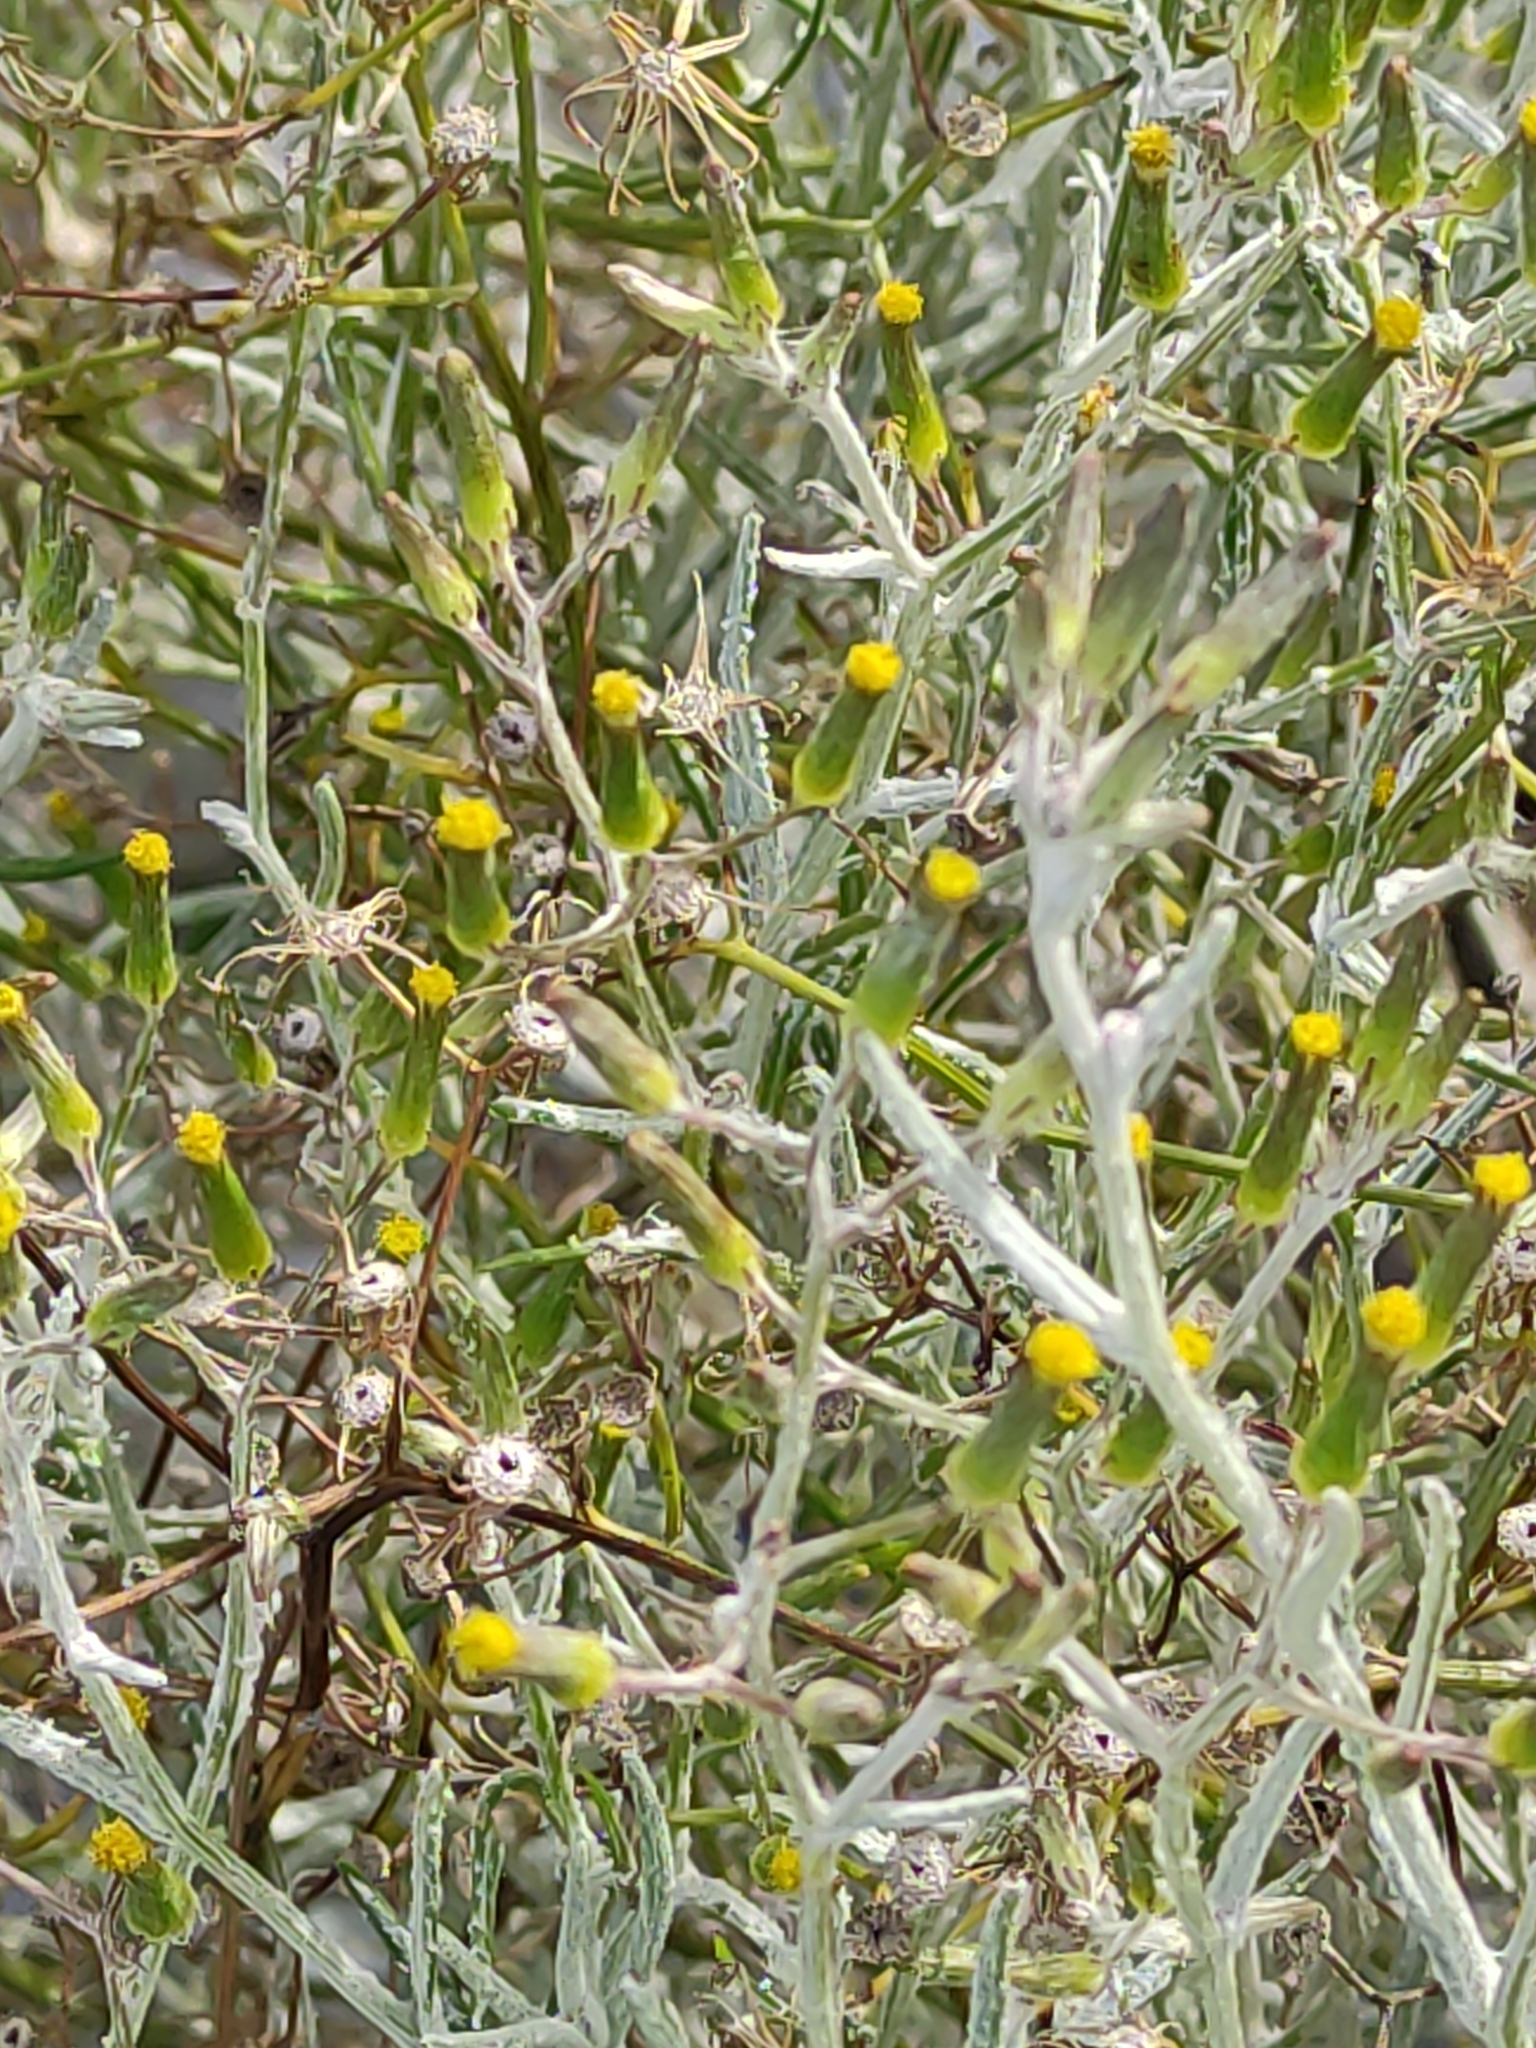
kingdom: Plantae
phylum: Tracheophyta
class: Magnoliopsida
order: Asterales
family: Asteraceae
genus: Senecio
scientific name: Senecio quadridentatus
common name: Cotton fireweed
